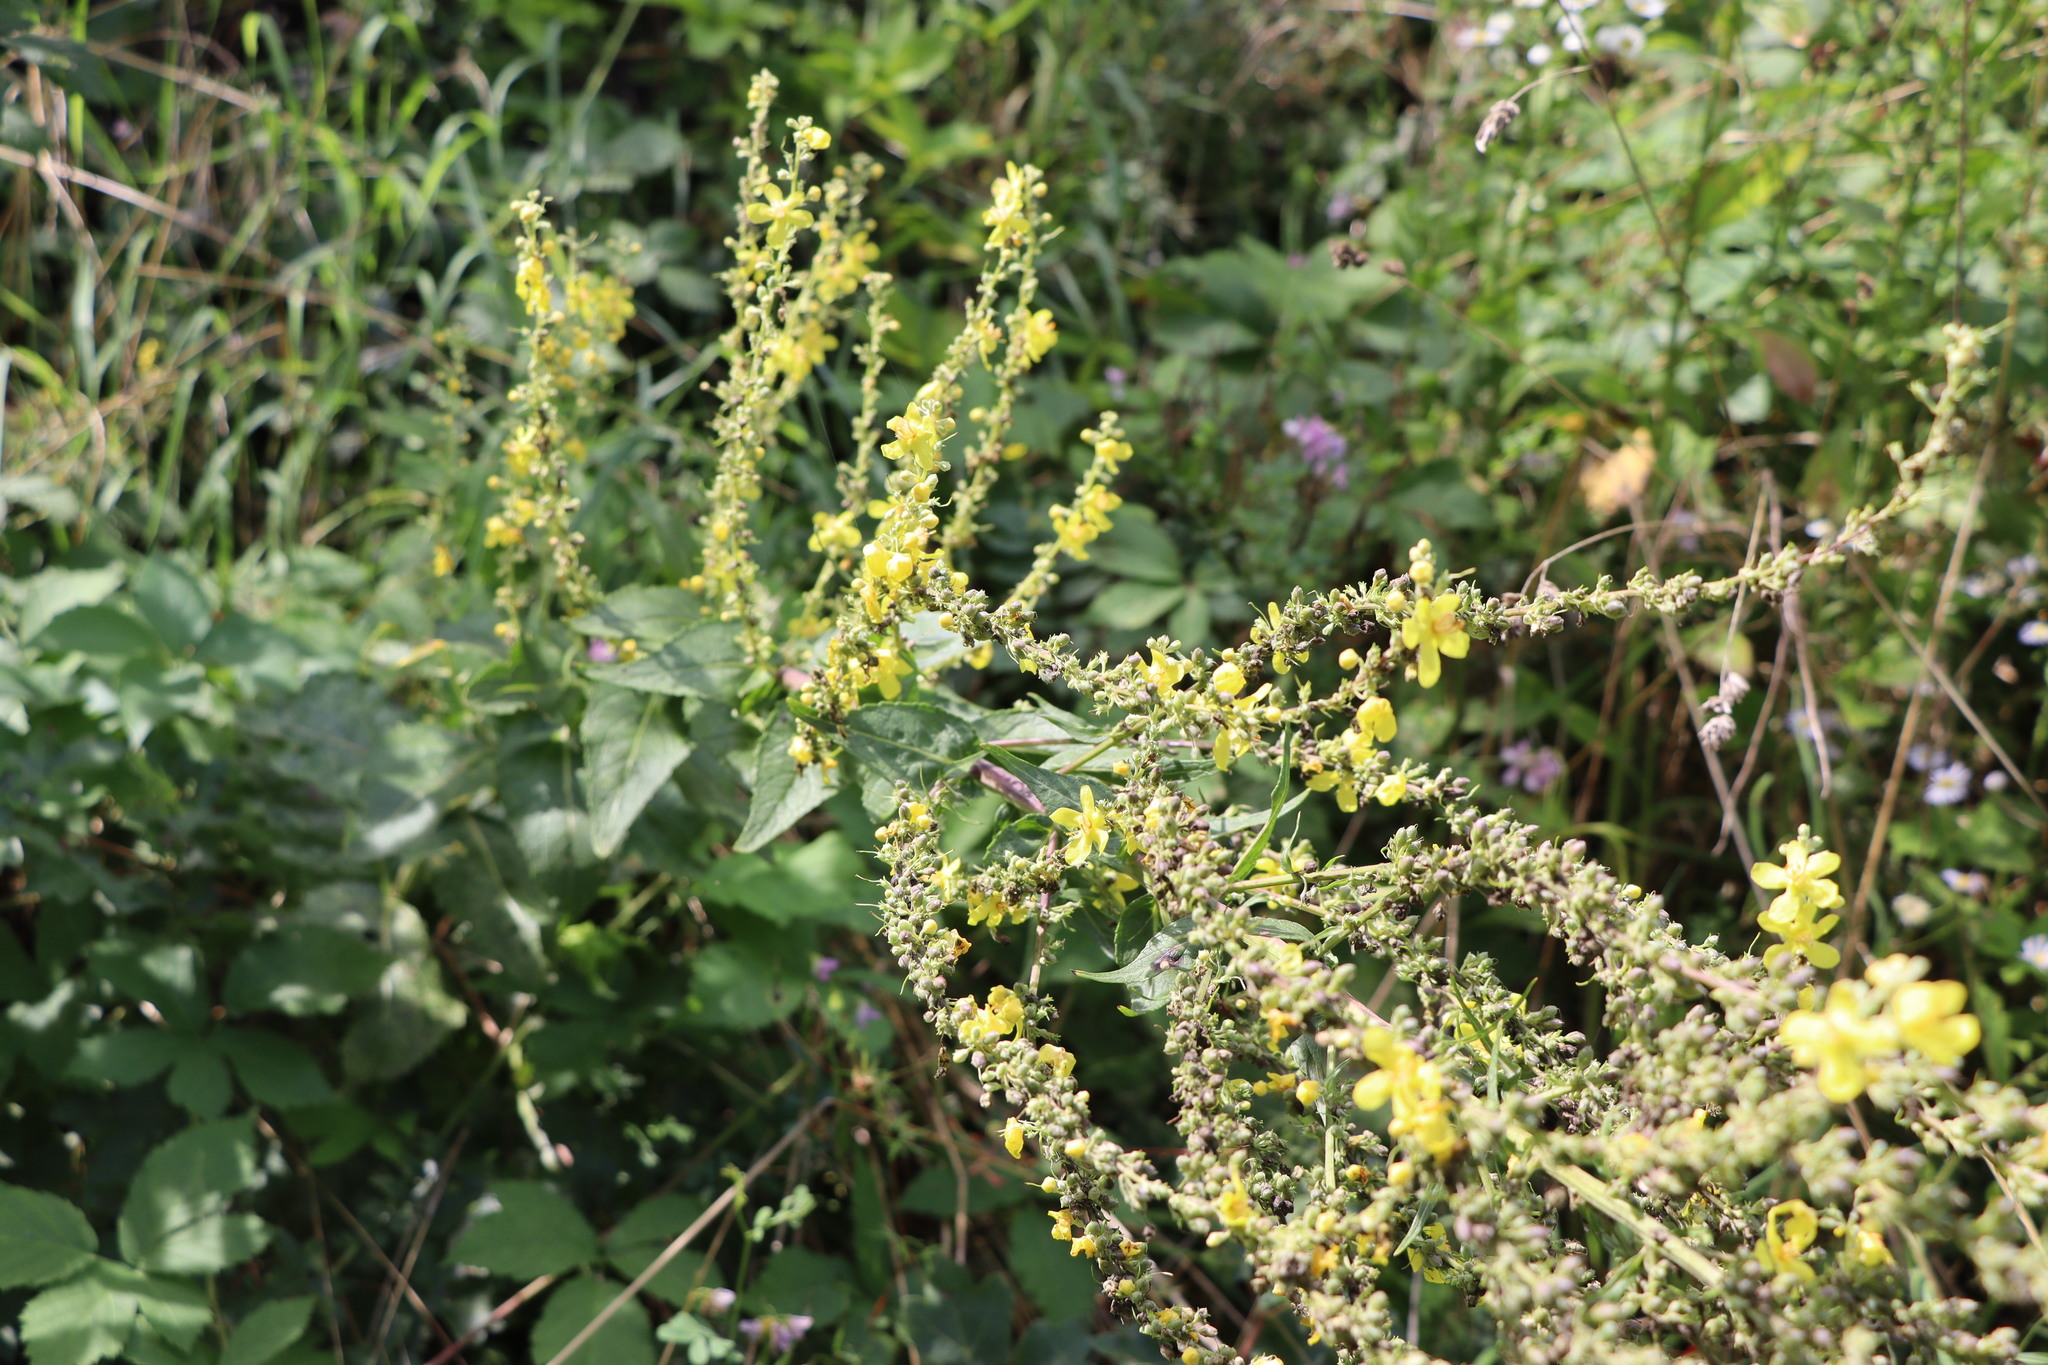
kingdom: Plantae
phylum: Tracheophyta
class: Magnoliopsida
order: Lamiales
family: Scrophulariaceae
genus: Verbascum
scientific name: Verbascum lychnitis
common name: White mullein
